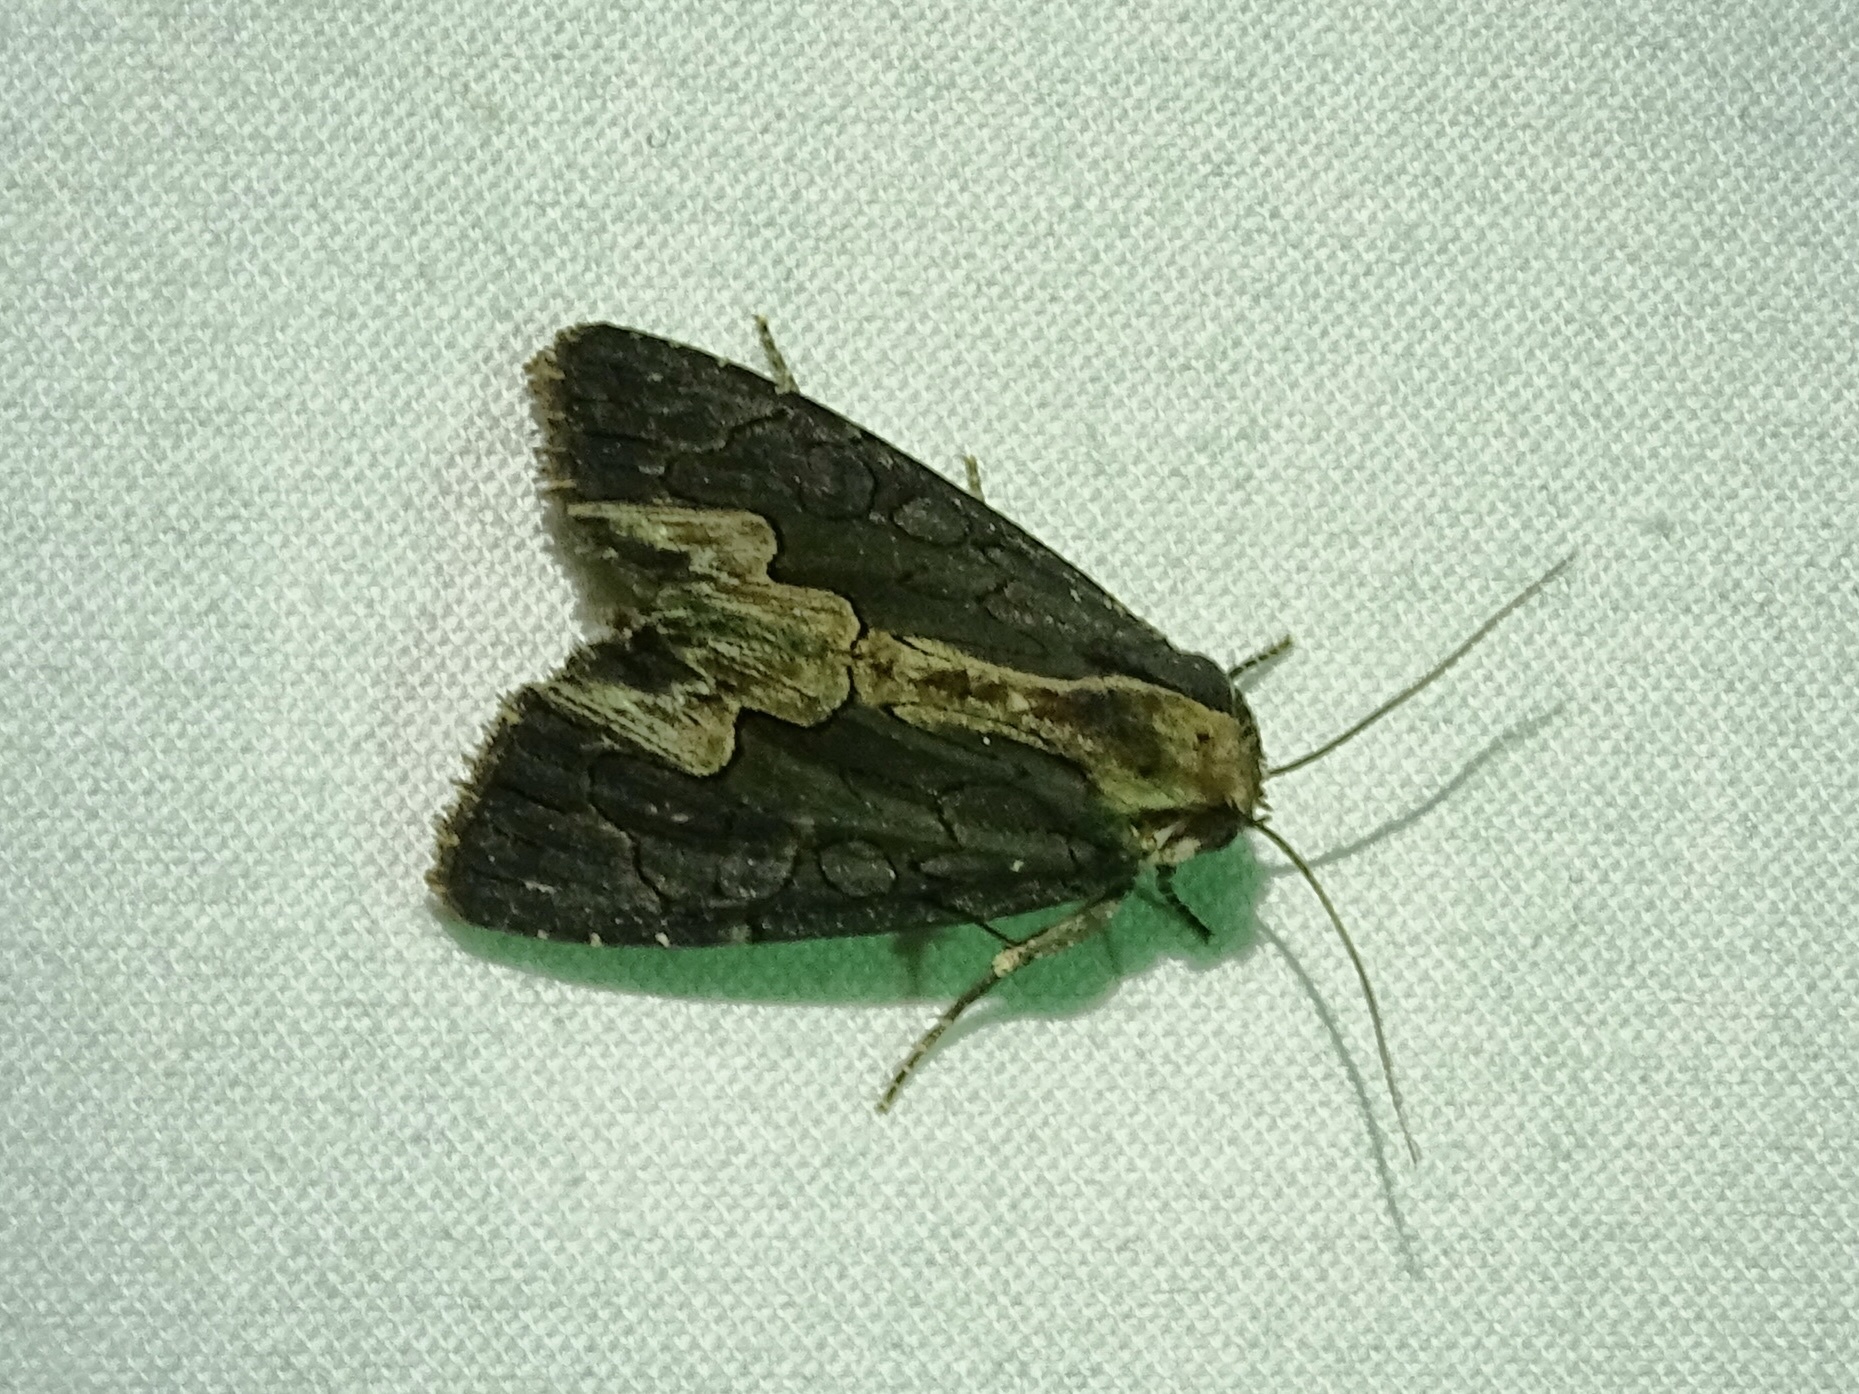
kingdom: Animalia
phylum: Arthropoda
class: Insecta
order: Lepidoptera
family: Noctuidae
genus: Dypterygia
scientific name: Dypterygia rozmani
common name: American bird's-wing
